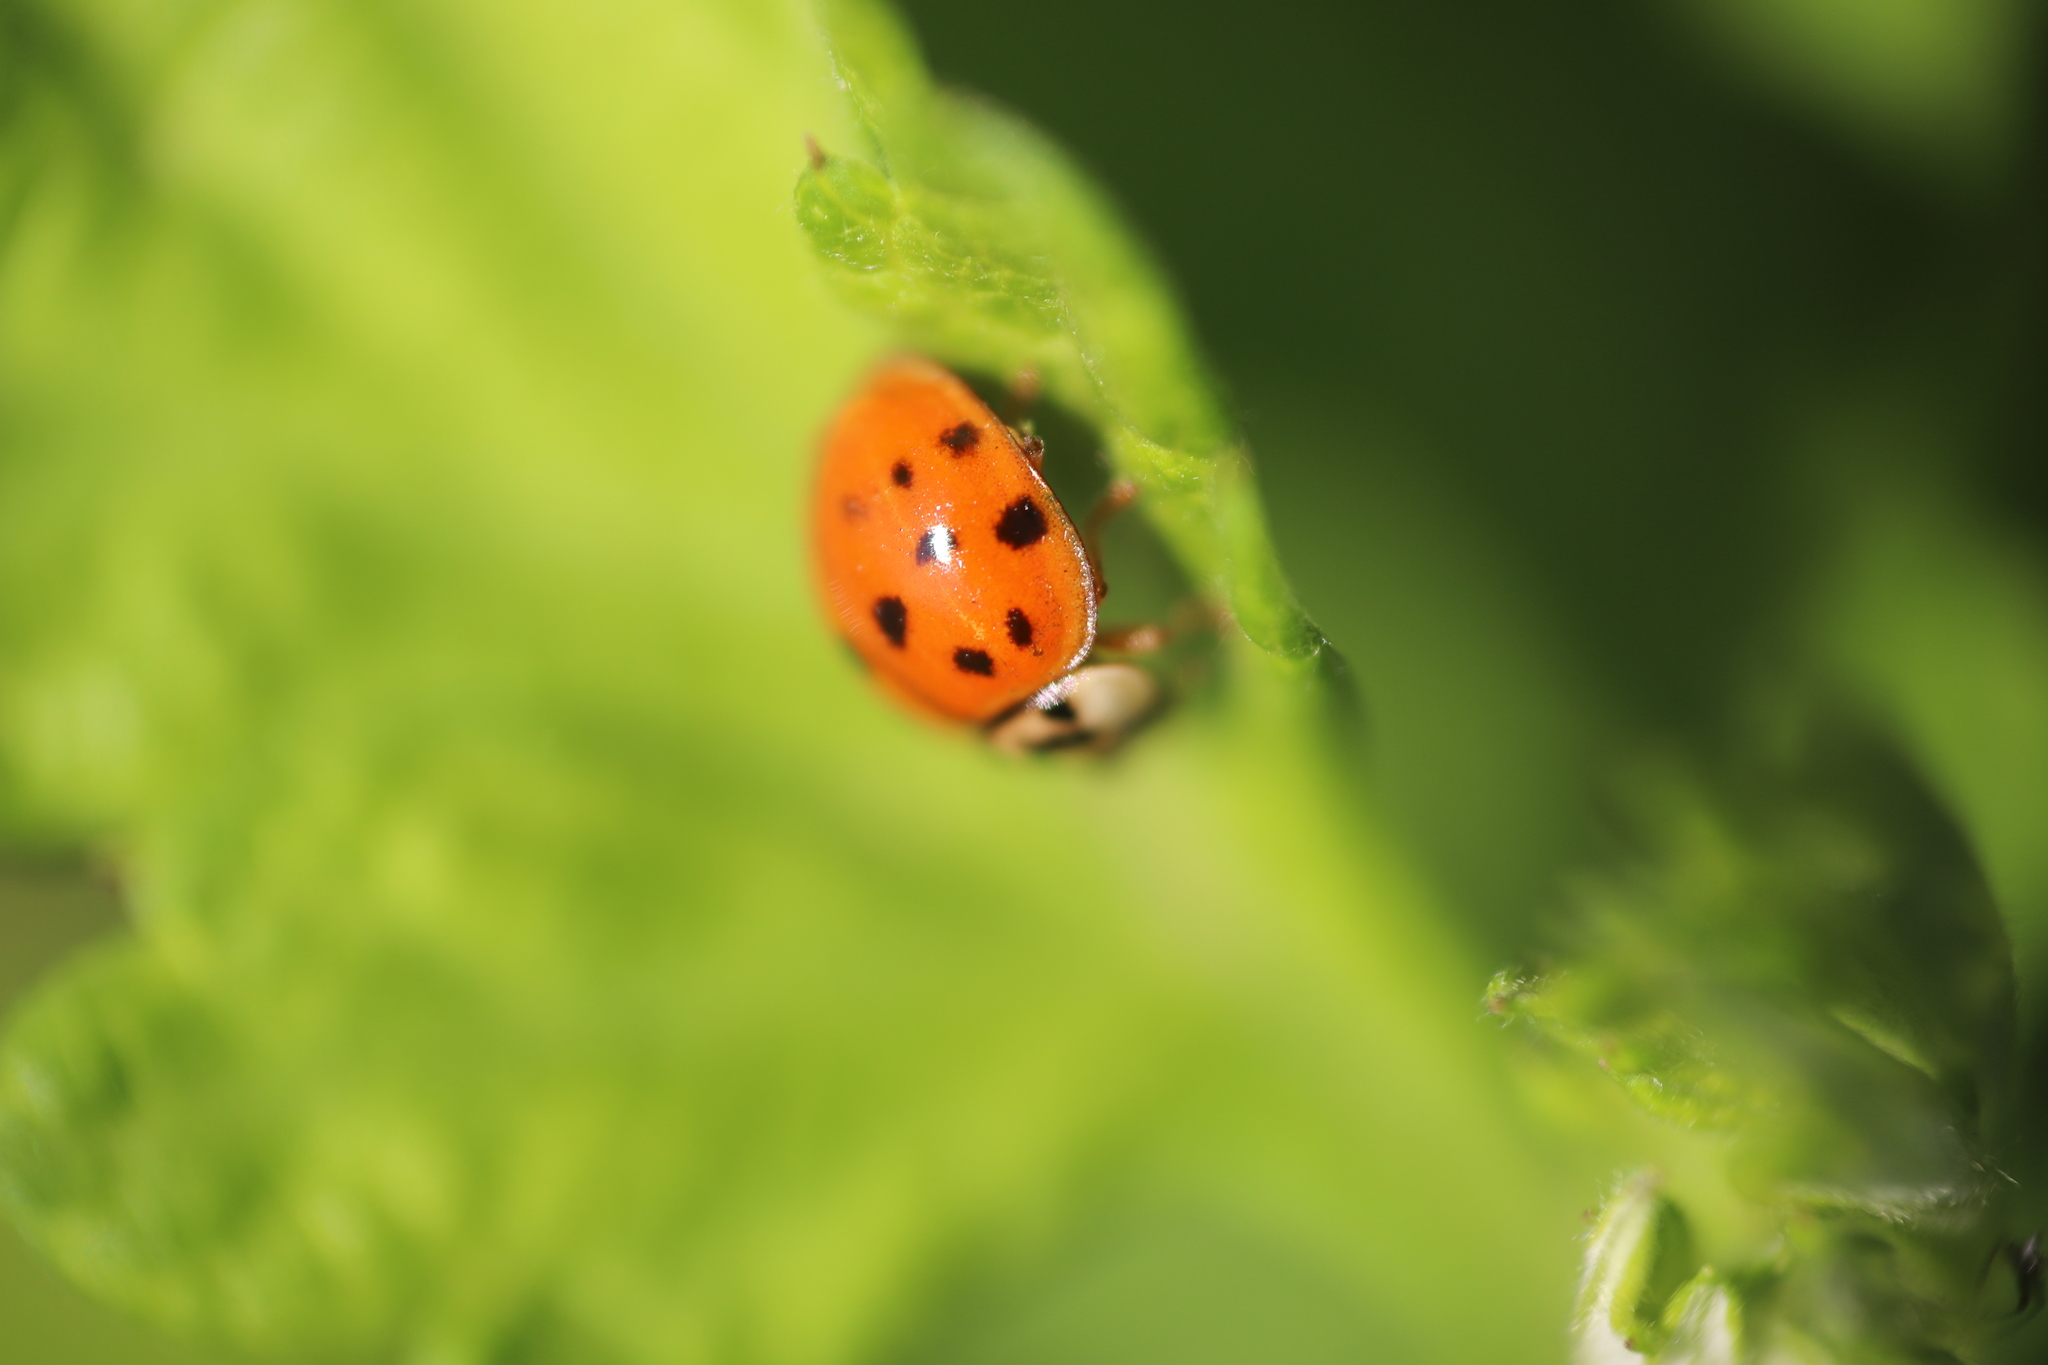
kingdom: Animalia
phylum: Arthropoda
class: Insecta
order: Coleoptera
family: Coccinellidae
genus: Harmonia
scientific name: Harmonia axyridis
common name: Harlequin ladybird
